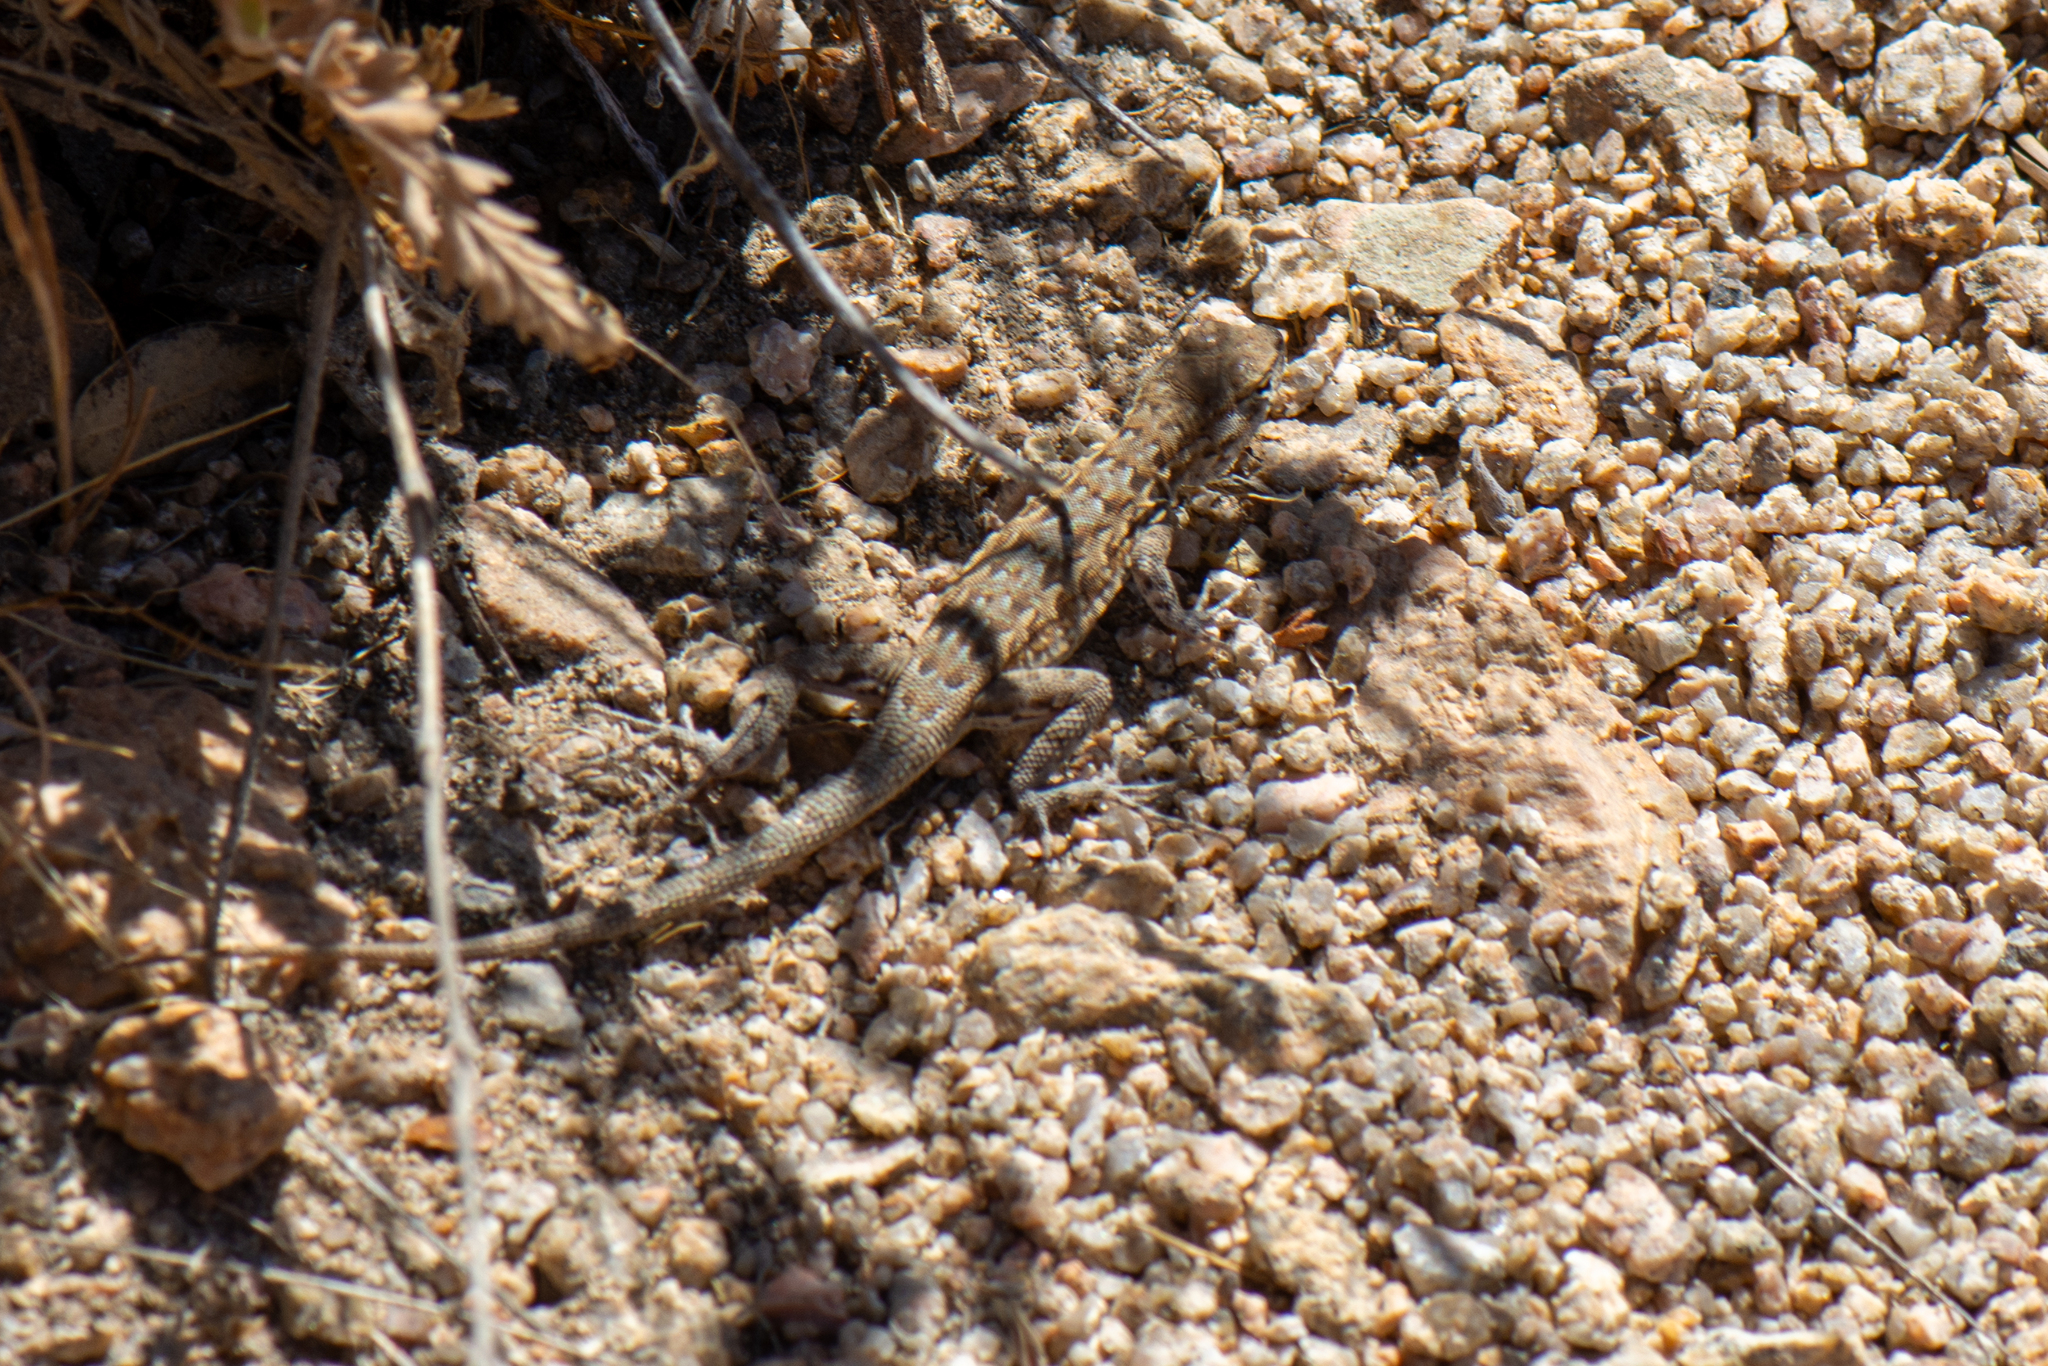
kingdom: Animalia
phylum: Chordata
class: Squamata
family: Phrynosomatidae
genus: Uta
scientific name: Uta stansburiana
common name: Side-blotched lizard
